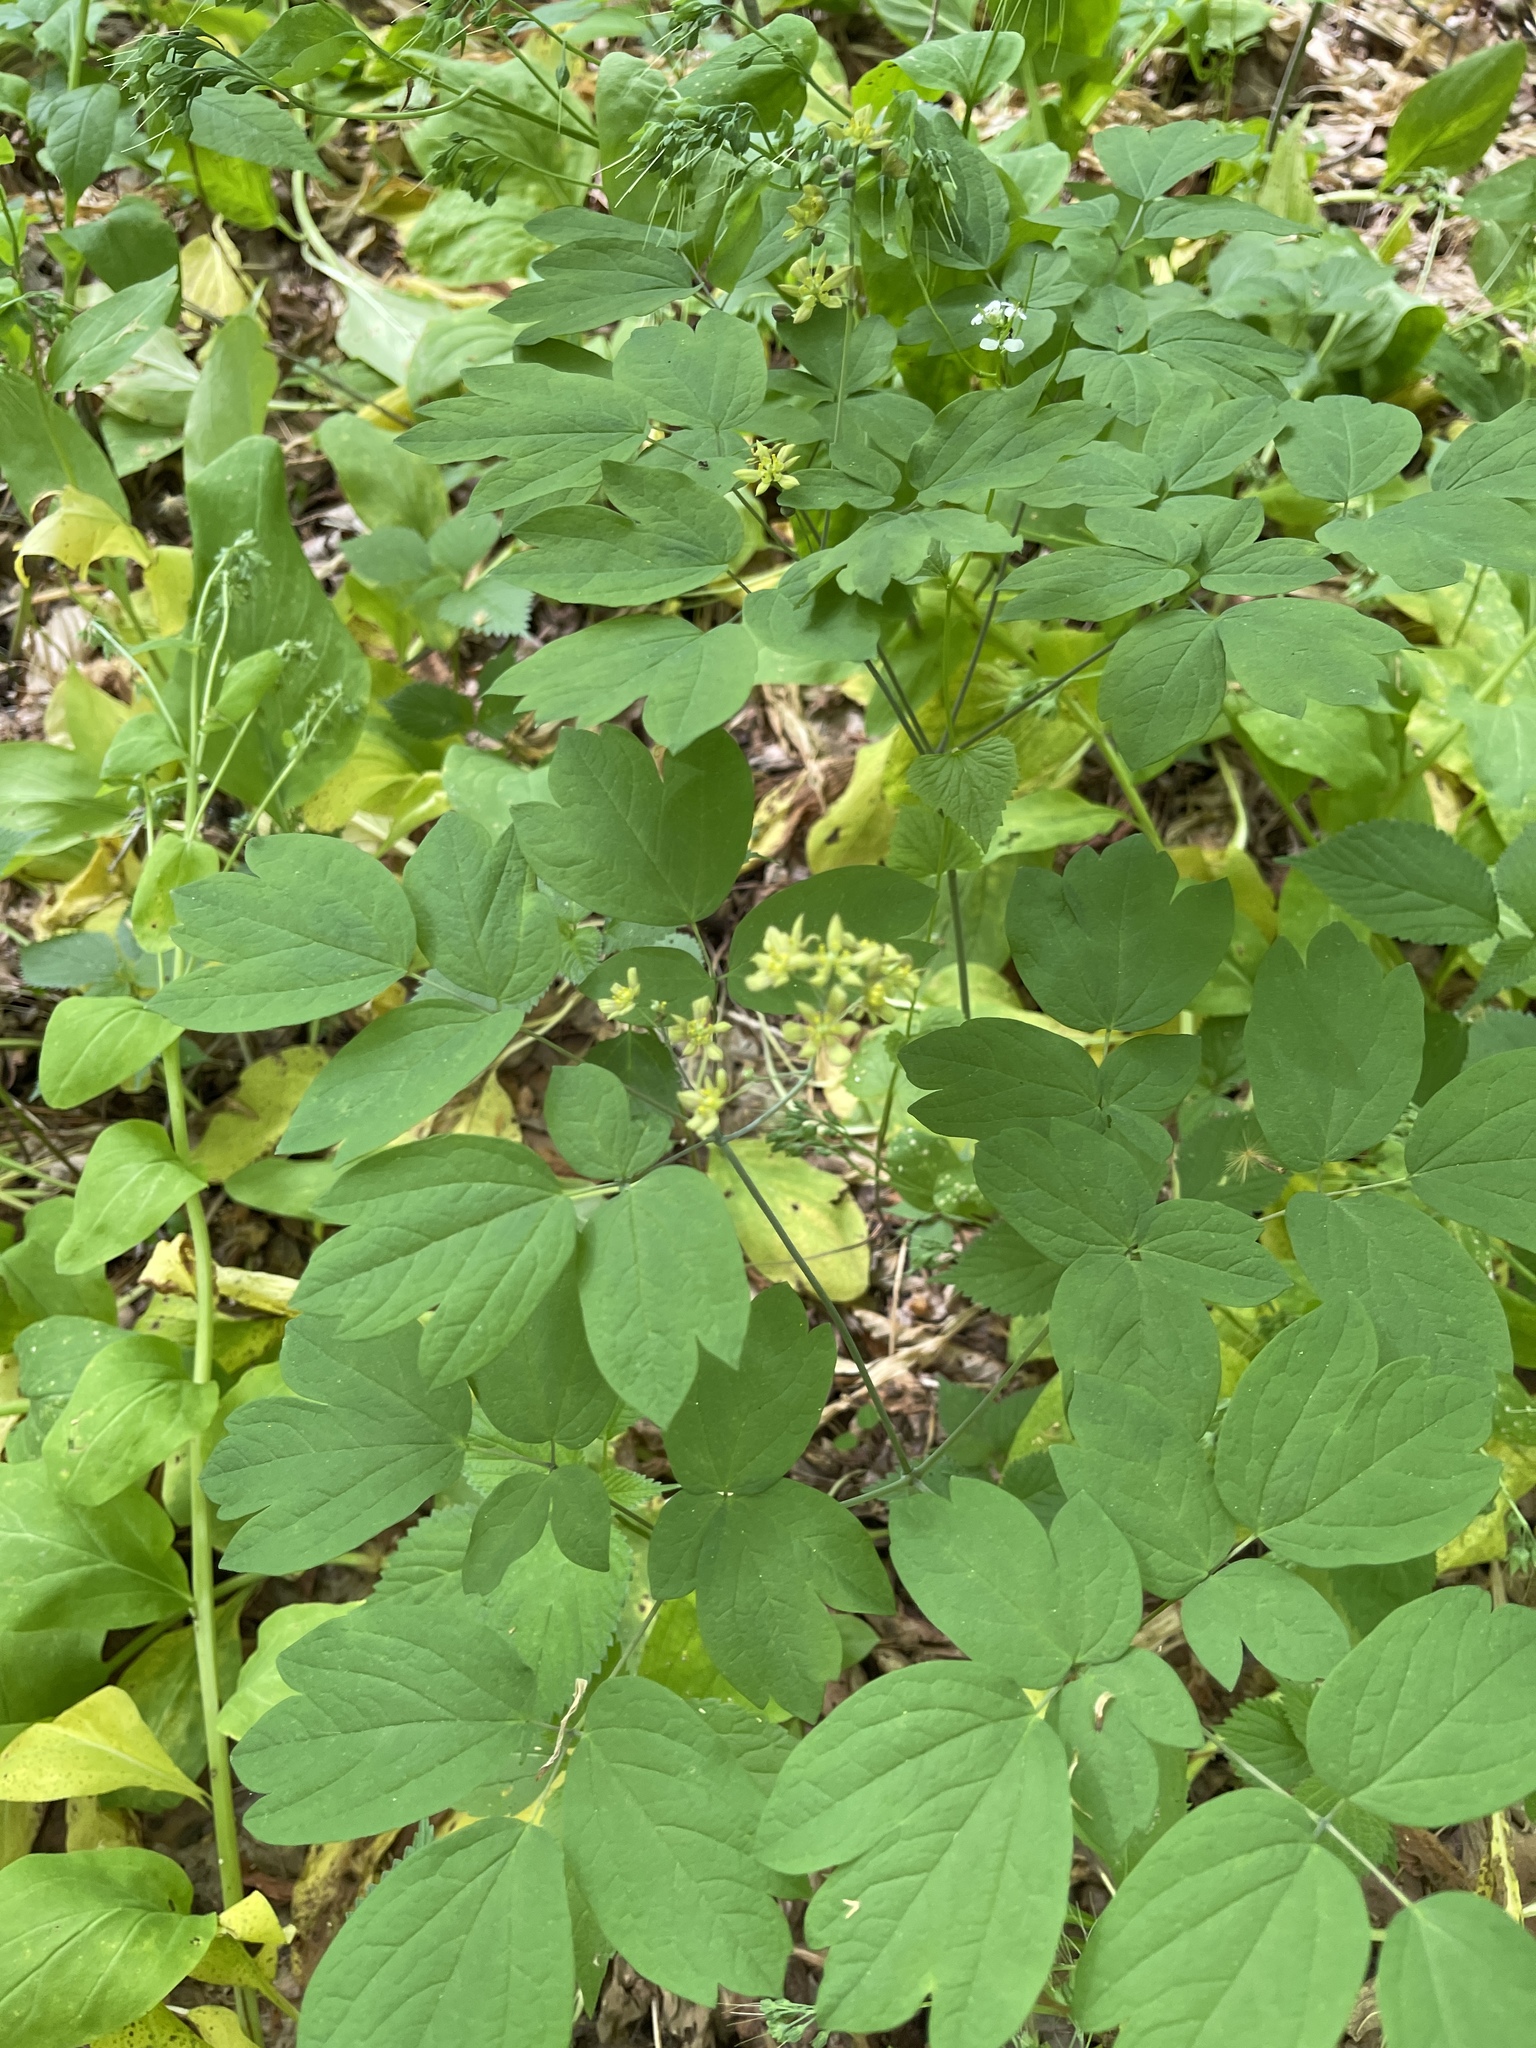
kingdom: Plantae
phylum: Tracheophyta
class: Magnoliopsida
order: Ranunculales
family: Berberidaceae
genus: Caulophyllum
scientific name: Caulophyllum thalictroides
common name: Blue cohosh
